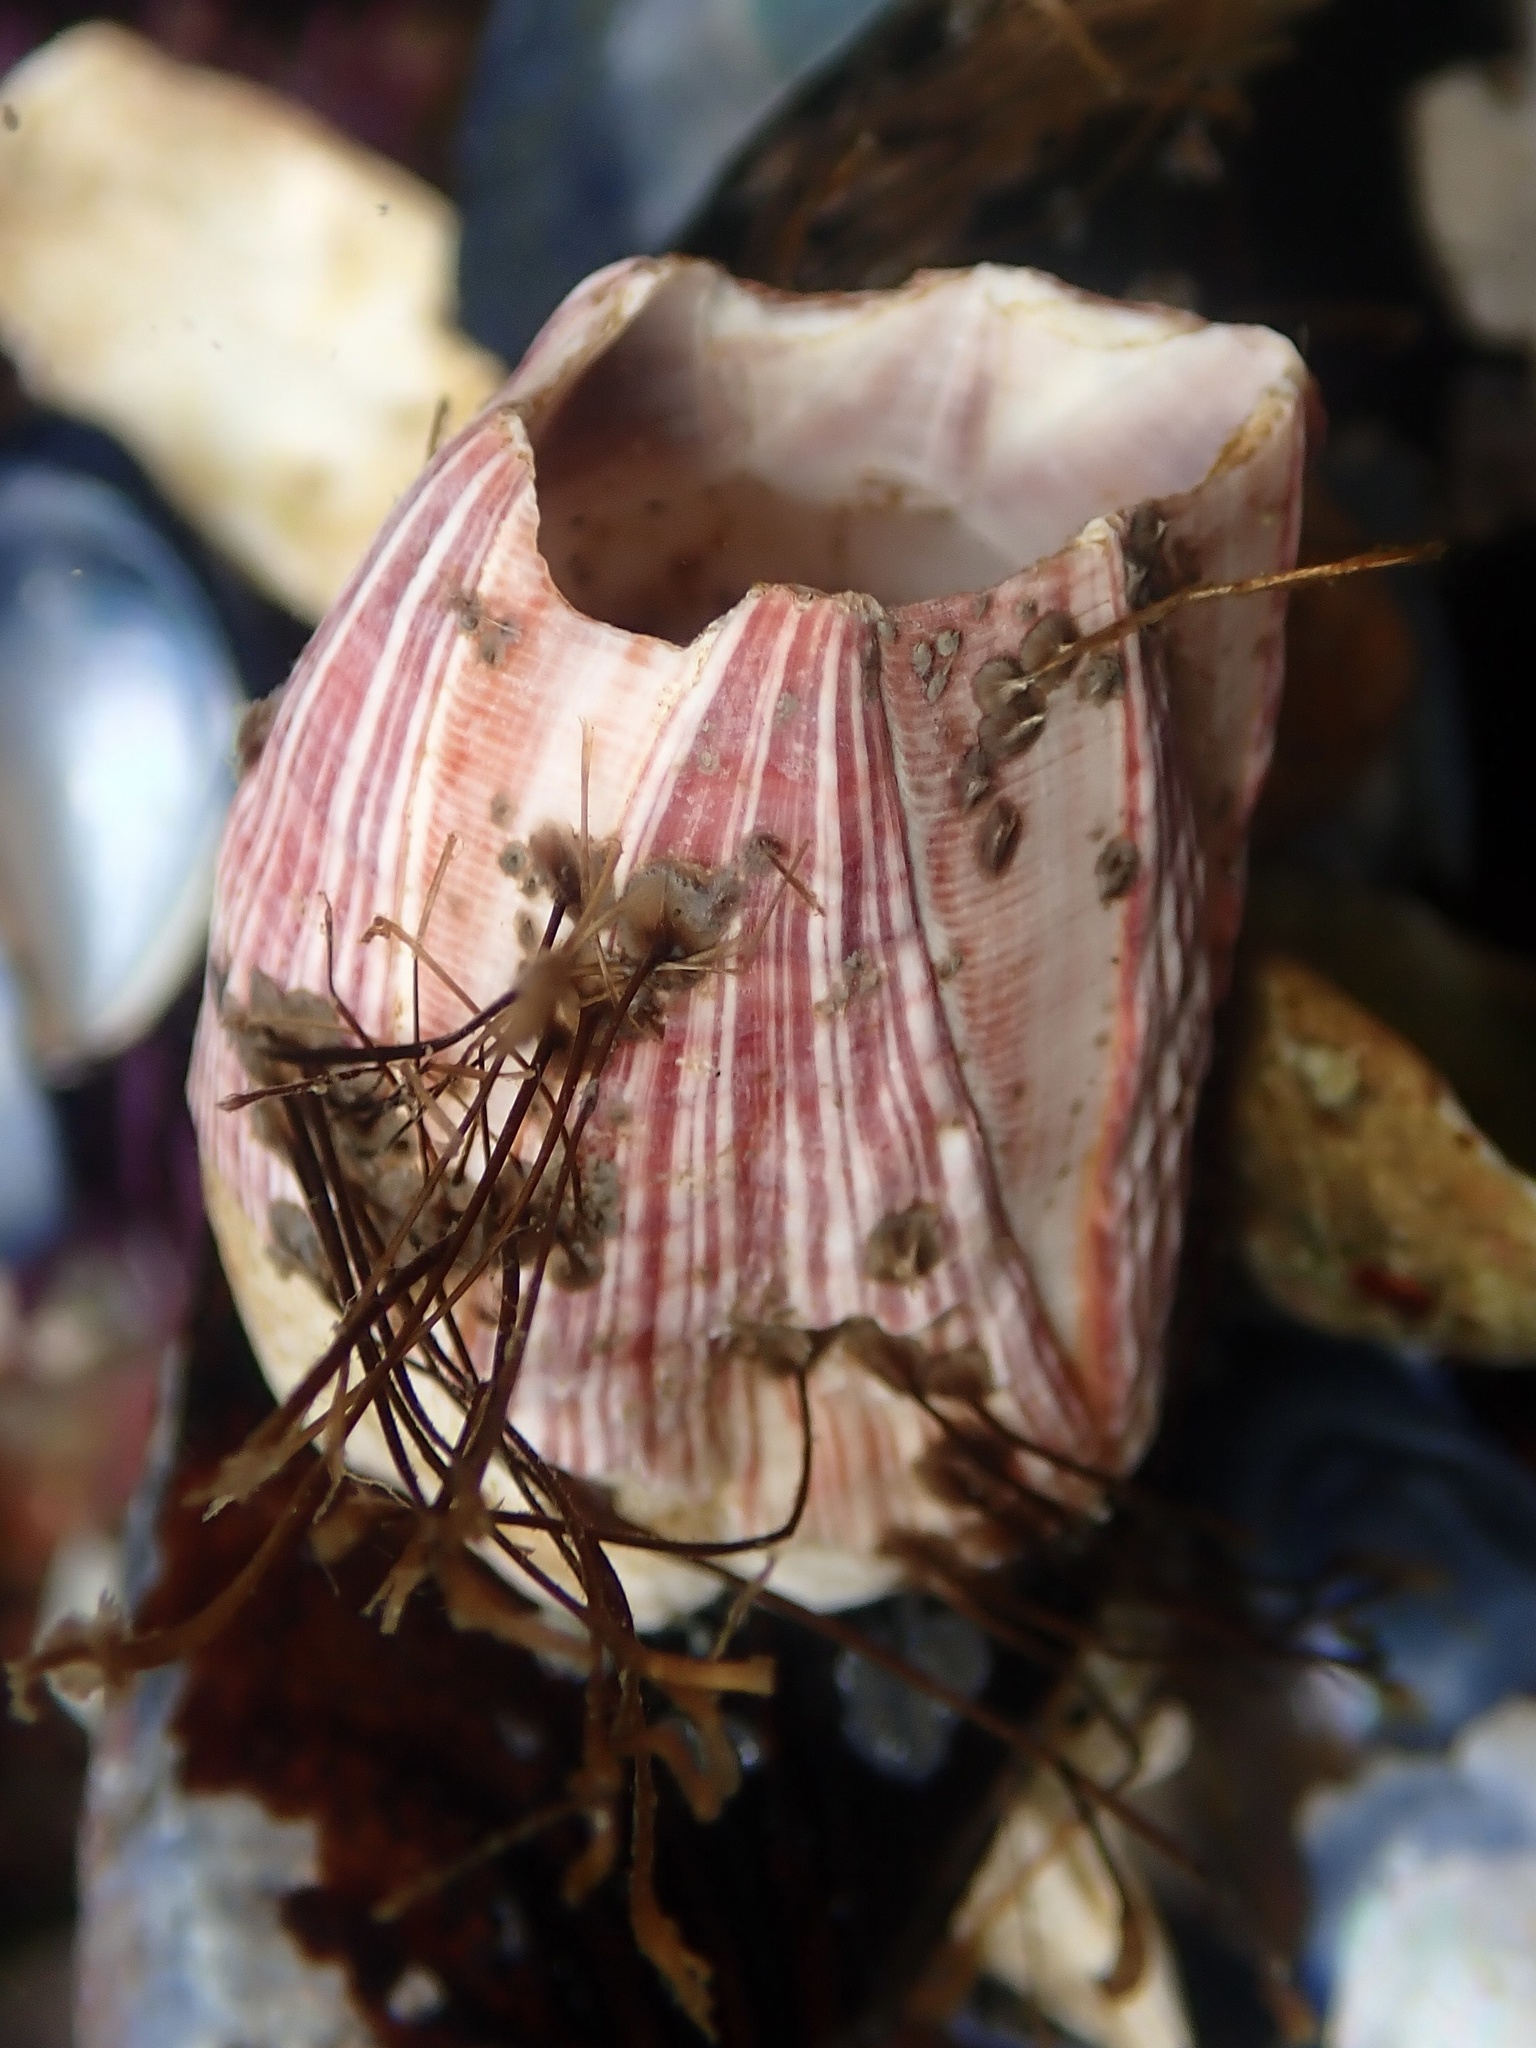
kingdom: Animalia
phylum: Arthropoda
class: Maxillopoda
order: Sessilia
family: Balanidae
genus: Megabalanus
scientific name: Megabalanus californicus
